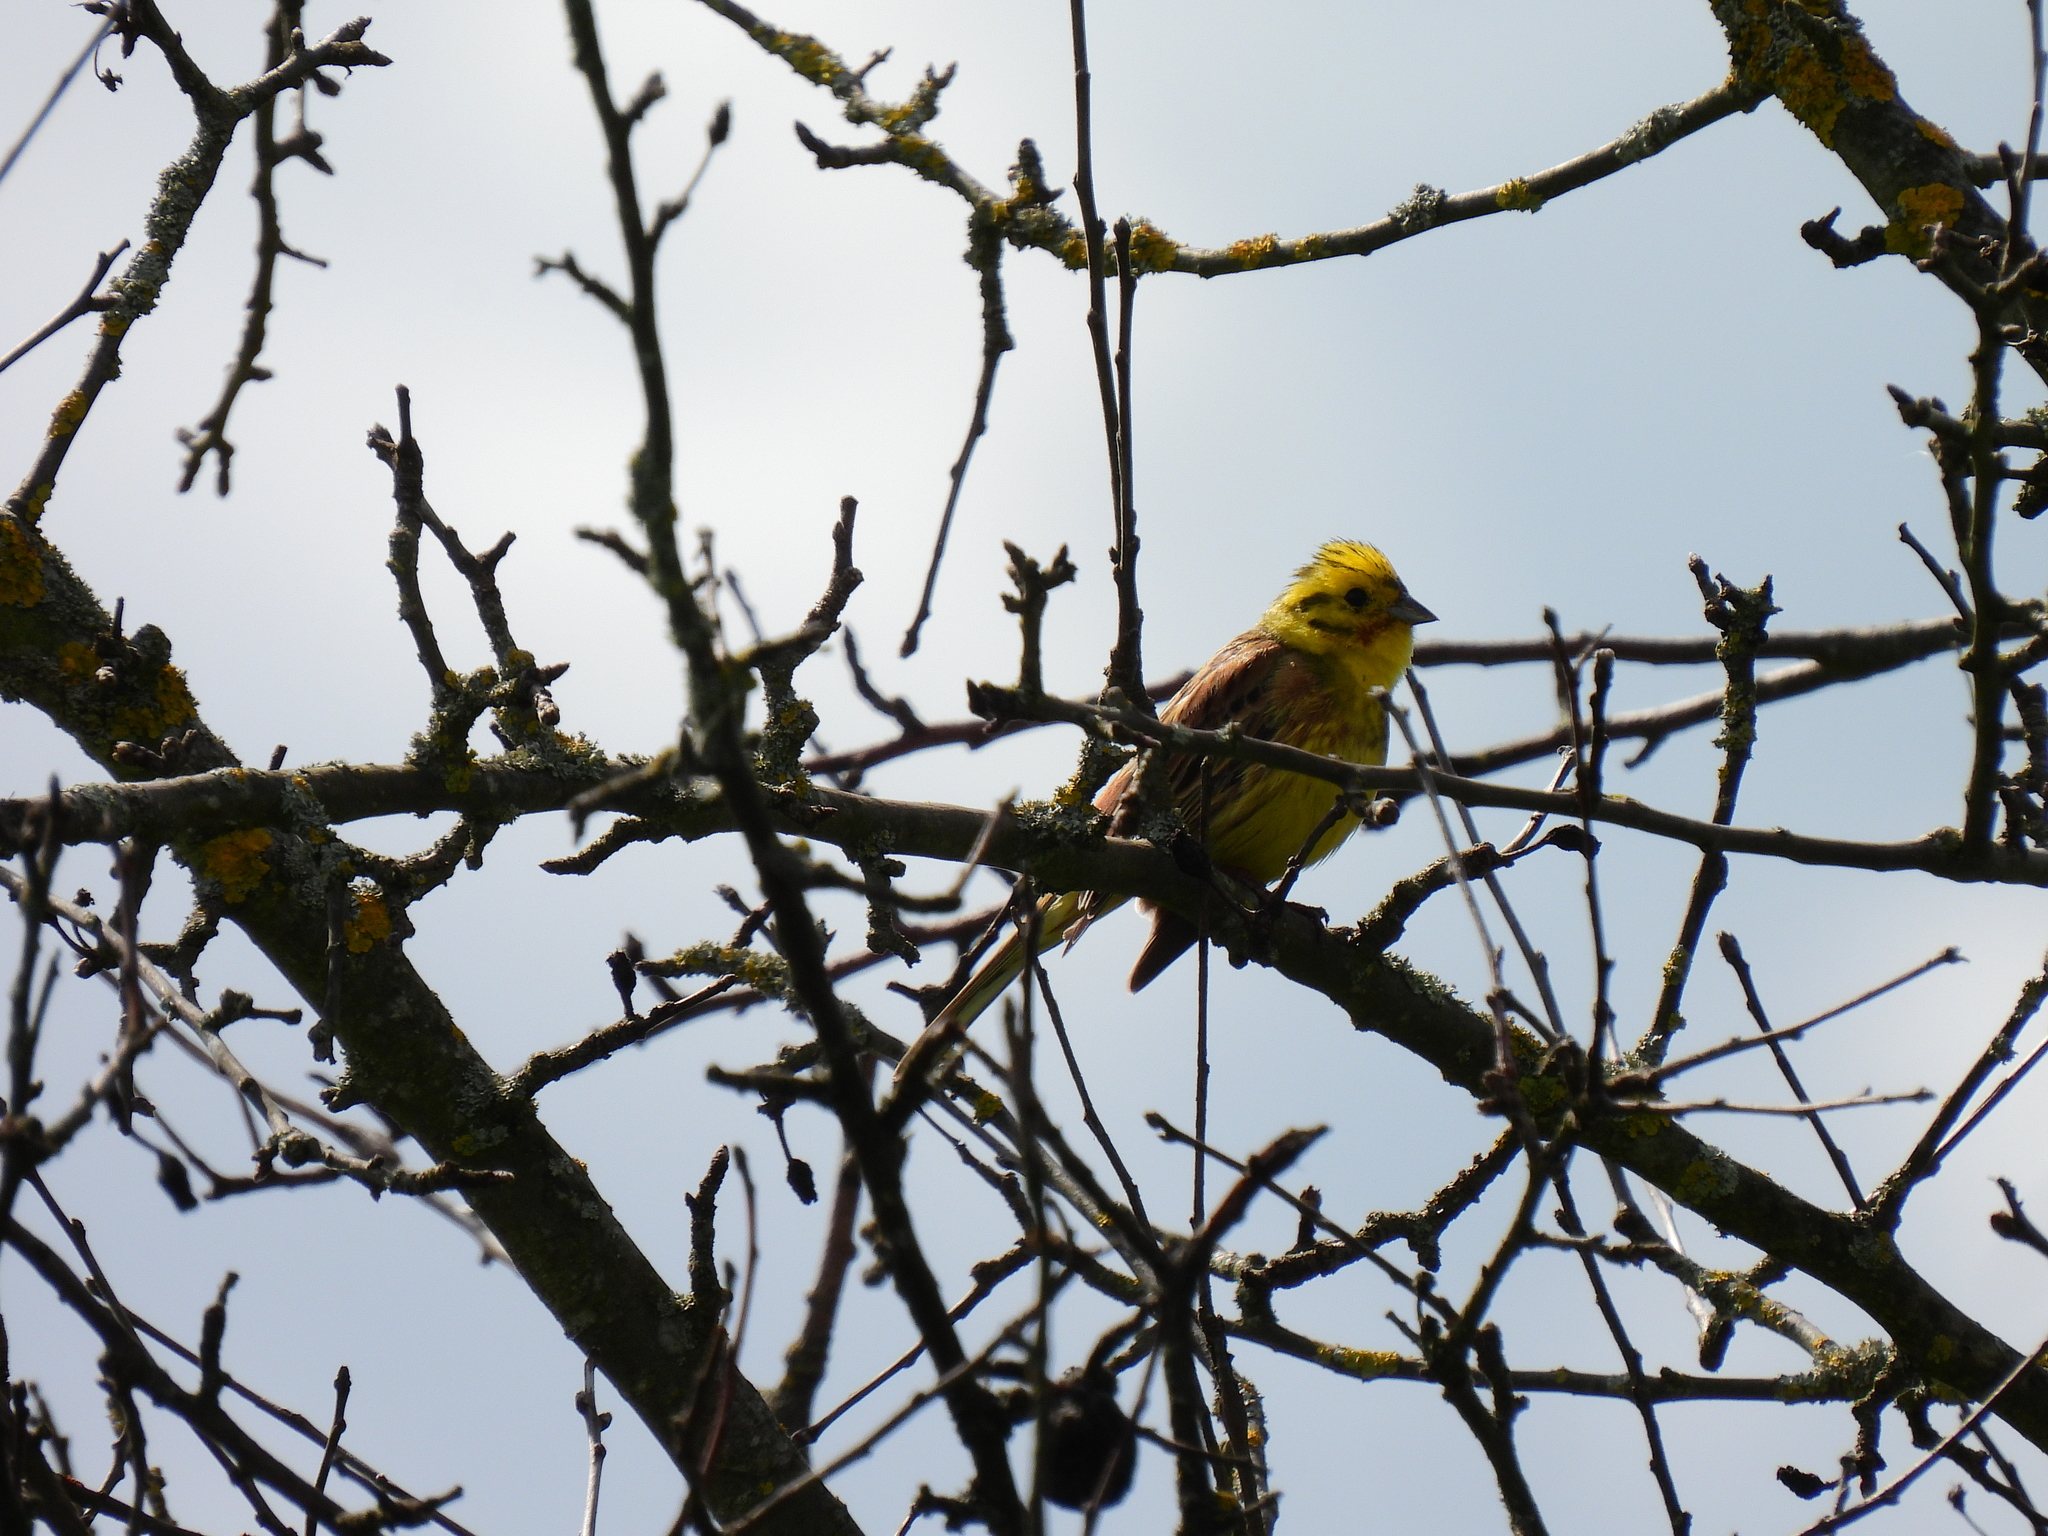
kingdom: Animalia
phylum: Chordata
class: Aves
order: Passeriformes
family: Emberizidae
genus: Emberiza
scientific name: Emberiza citrinella
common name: Yellowhammer
